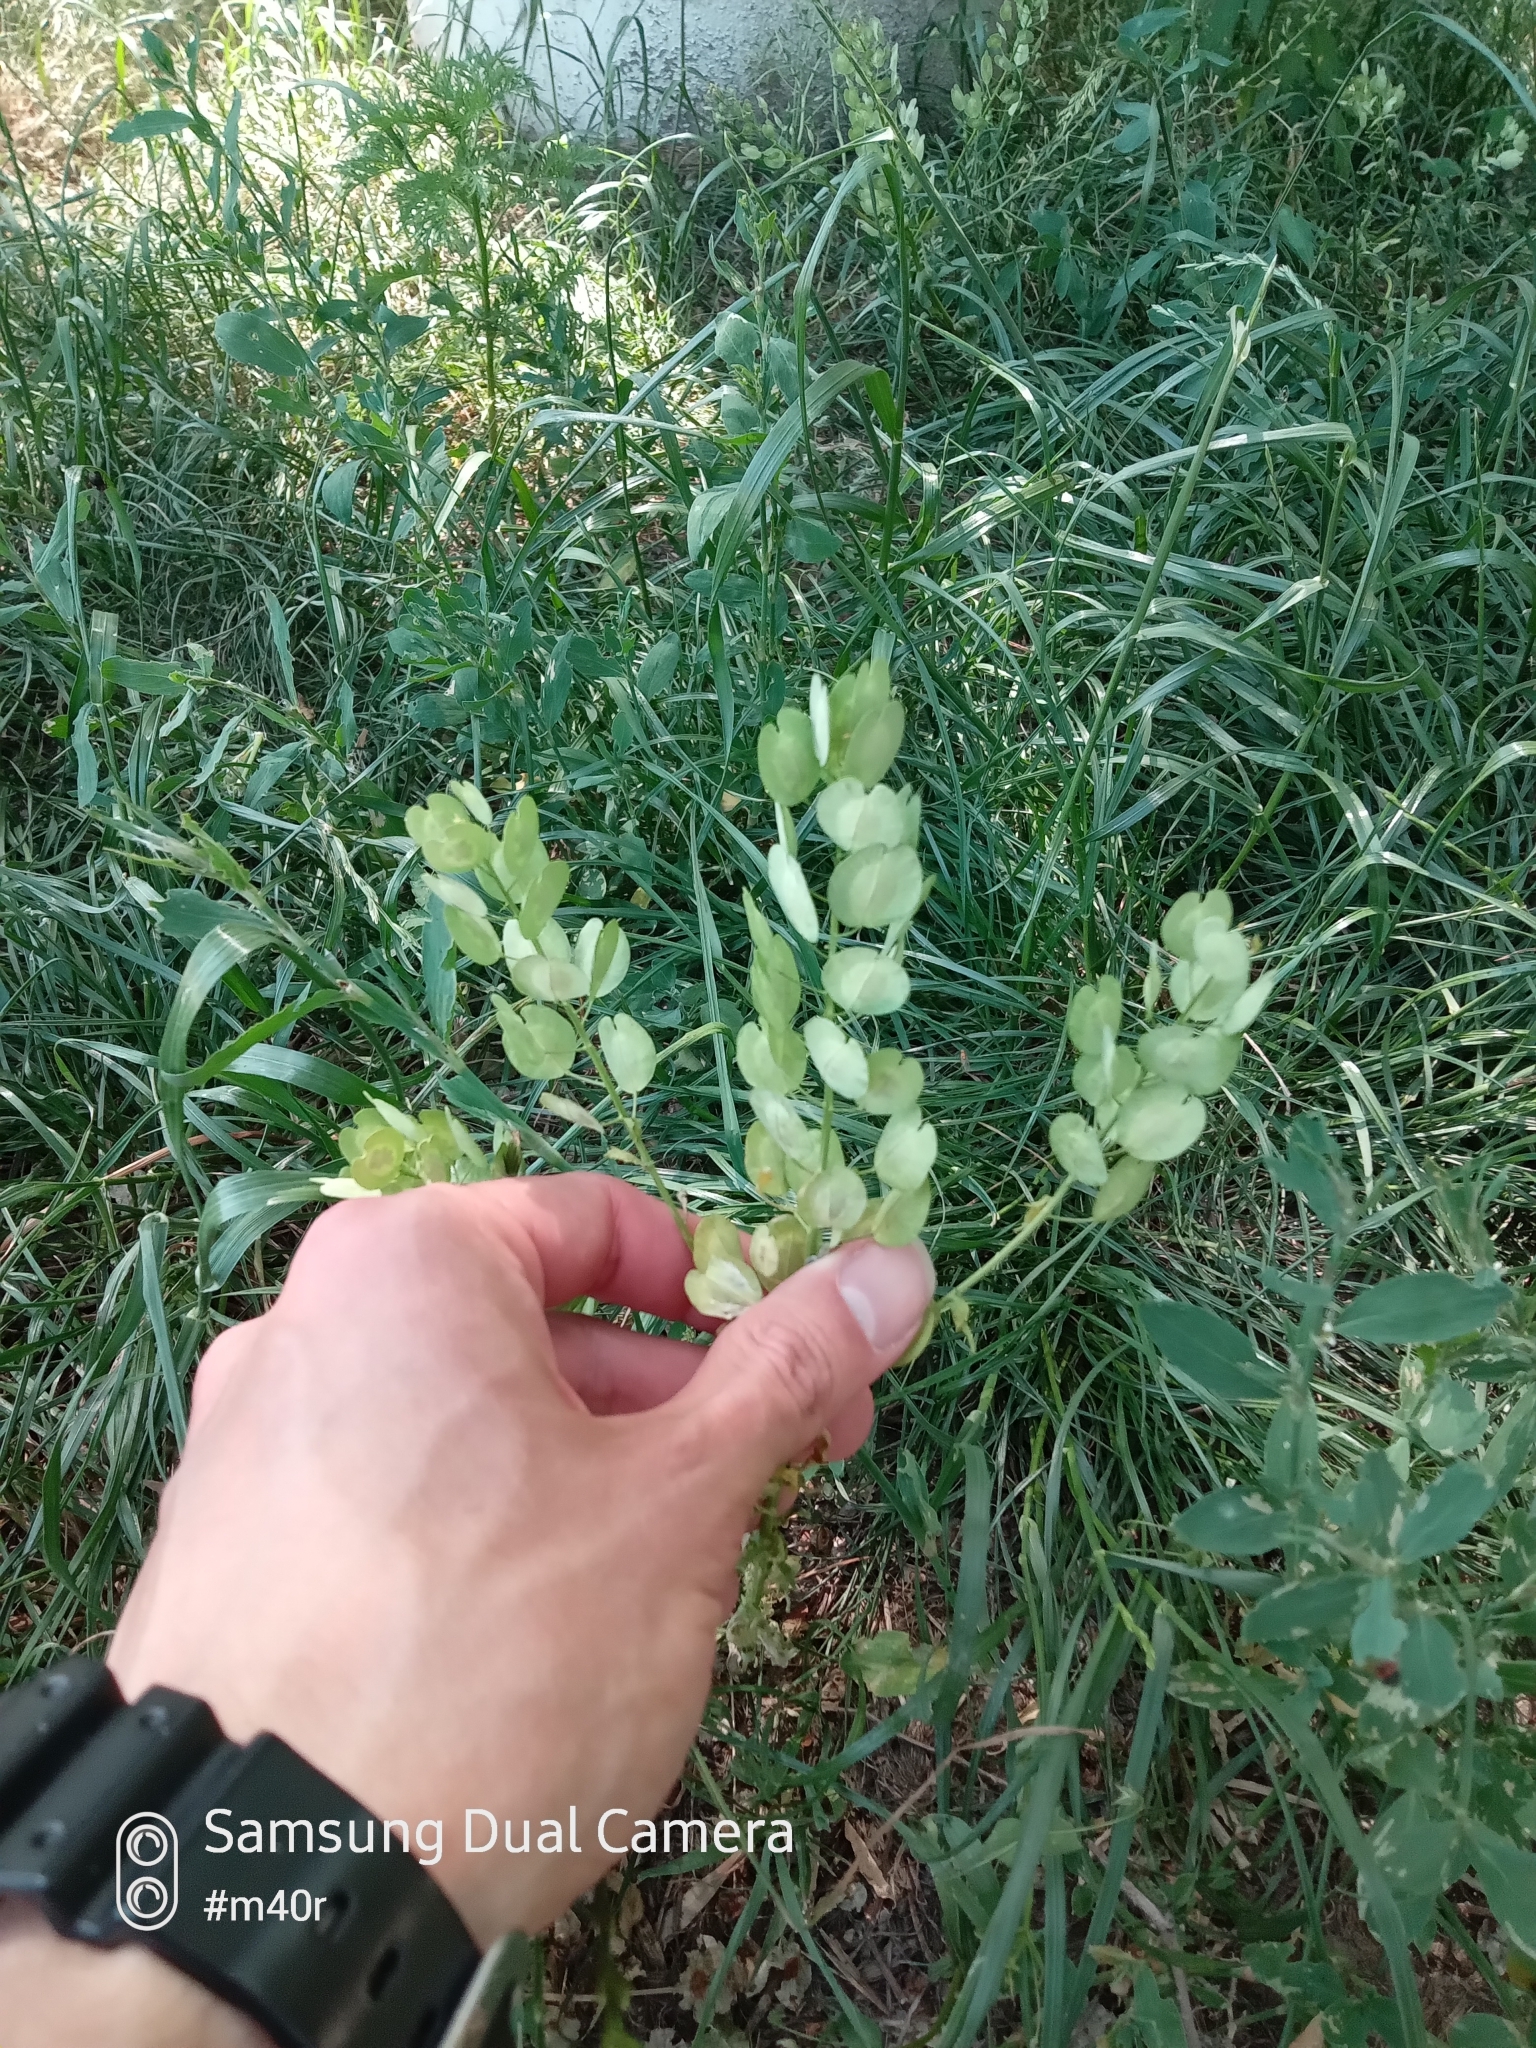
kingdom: Plantae
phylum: Tracheophyta
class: Magnoliopsida
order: Brassicales
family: Brassicaceae
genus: Thlaspi
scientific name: Thlaspi arvense
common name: Field pennycress
